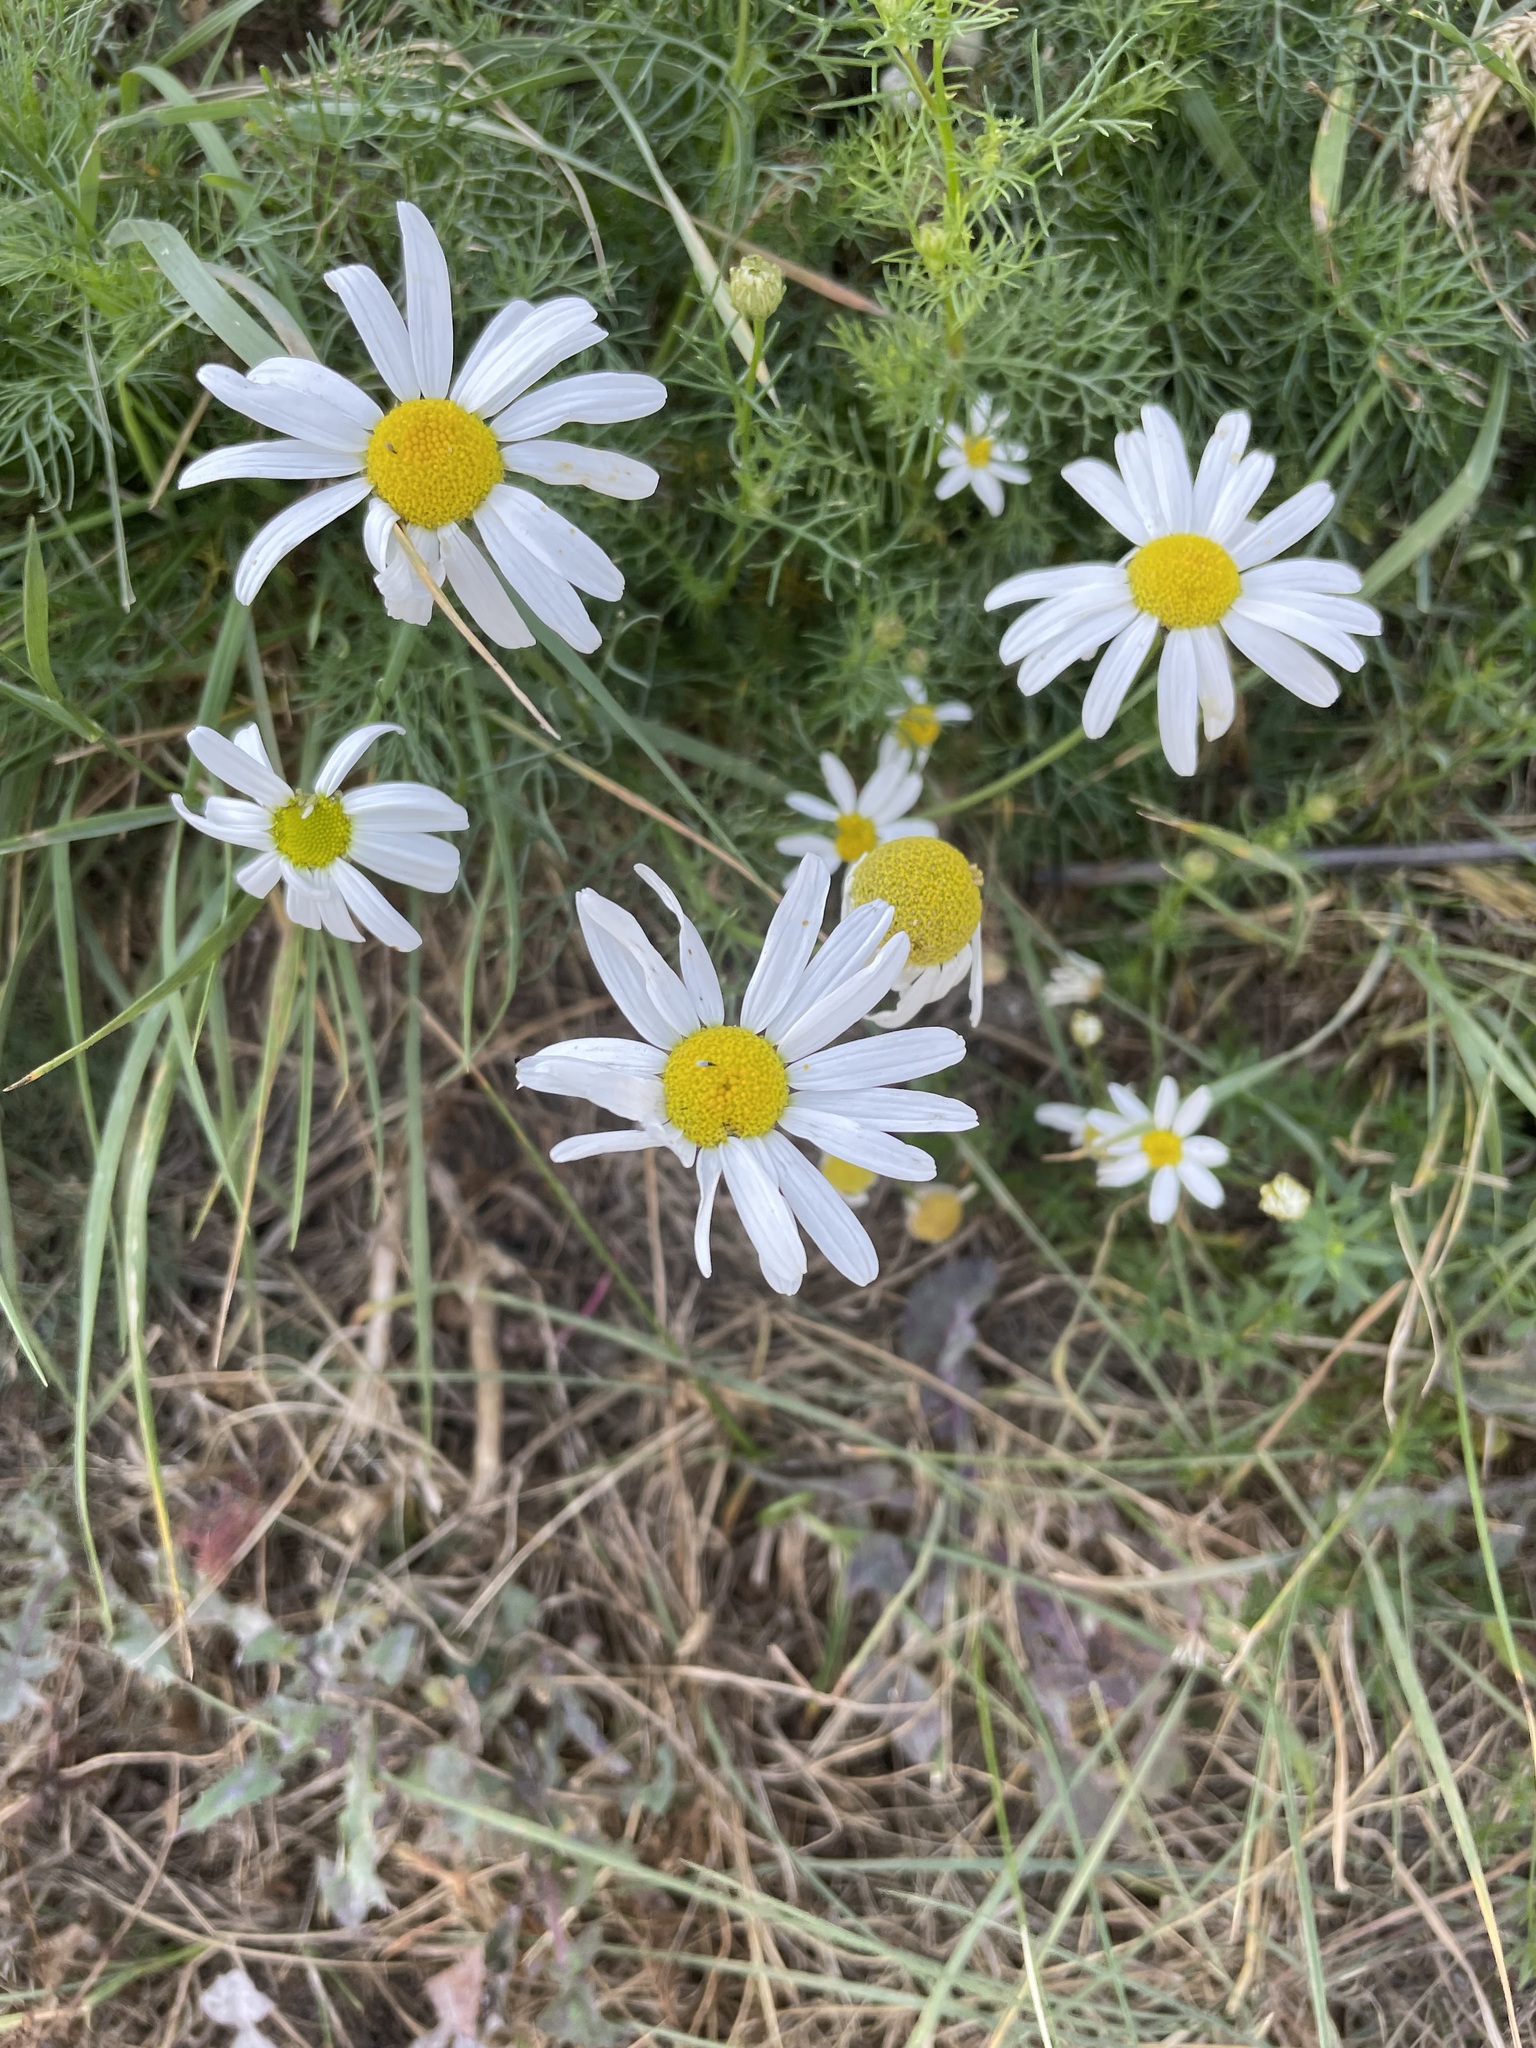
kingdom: Plantae
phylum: Tracheophyta
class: Magnoliopsida
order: Asterales
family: Asteraceae
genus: Tripleurospermum
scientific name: Tripleurospermum inodorum
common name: Scentless mayweed
